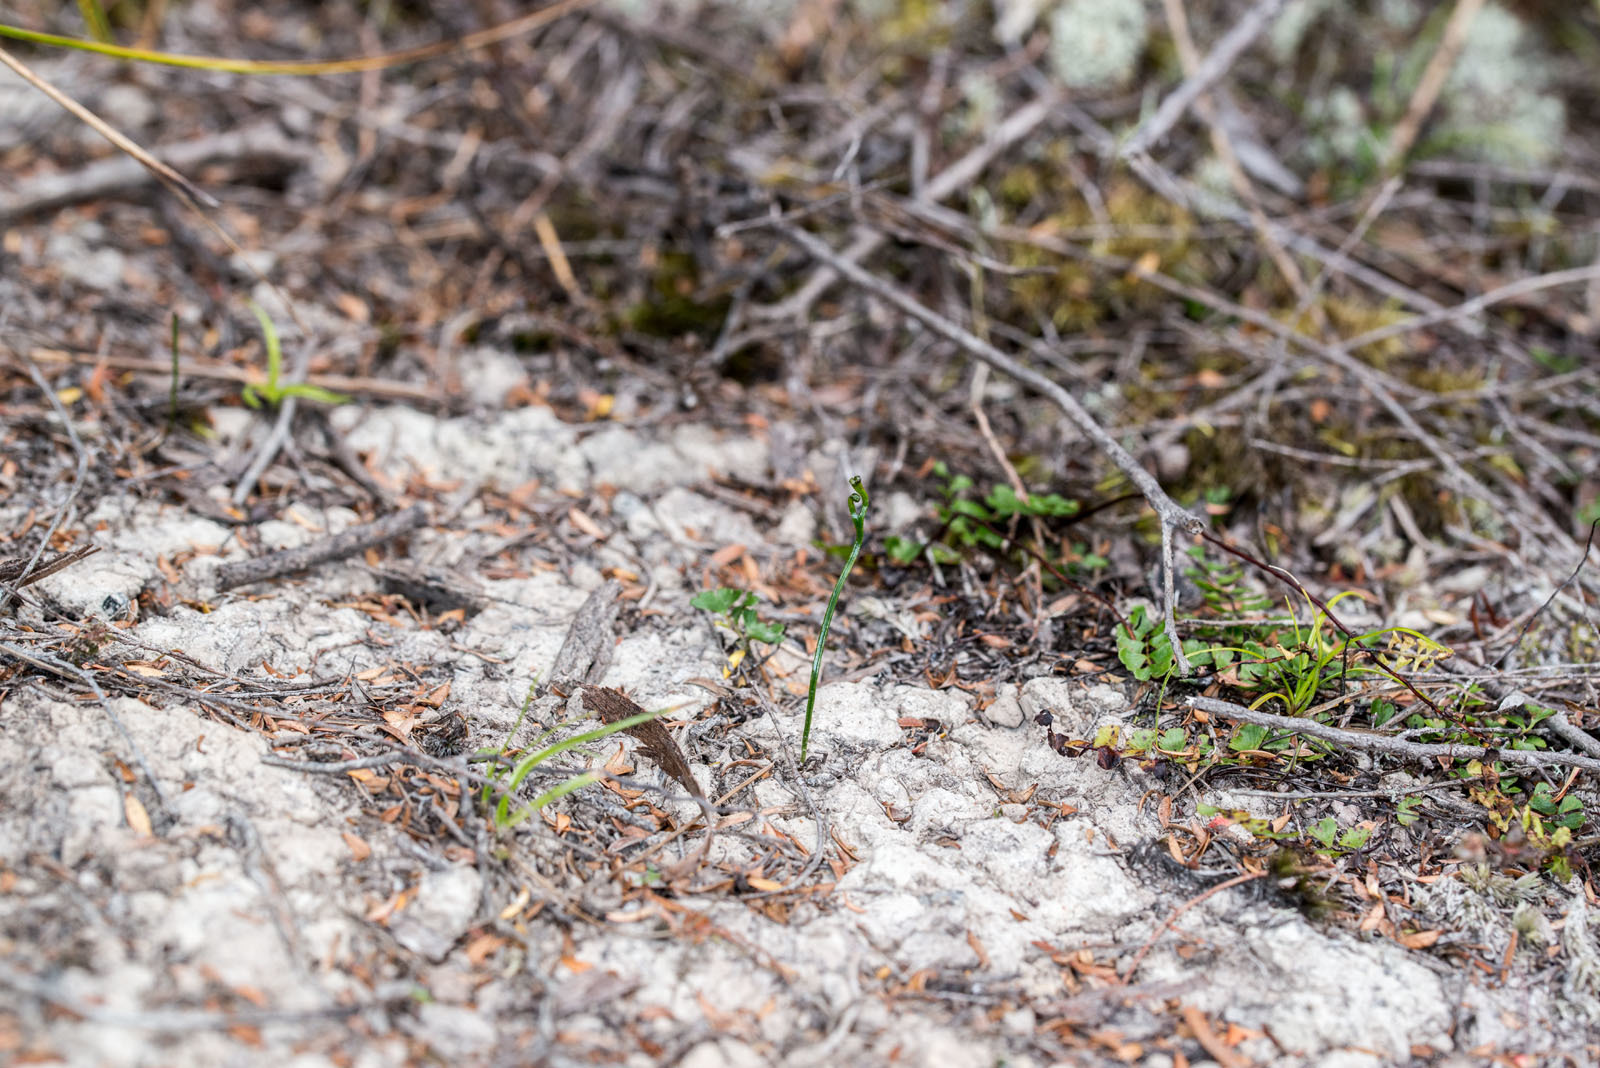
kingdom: Plantae
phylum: Tracheophyta
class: Polypodiopsida
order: Schizaeales
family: Schizaeaceae
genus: Schizaea
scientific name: Schizaea bifida
